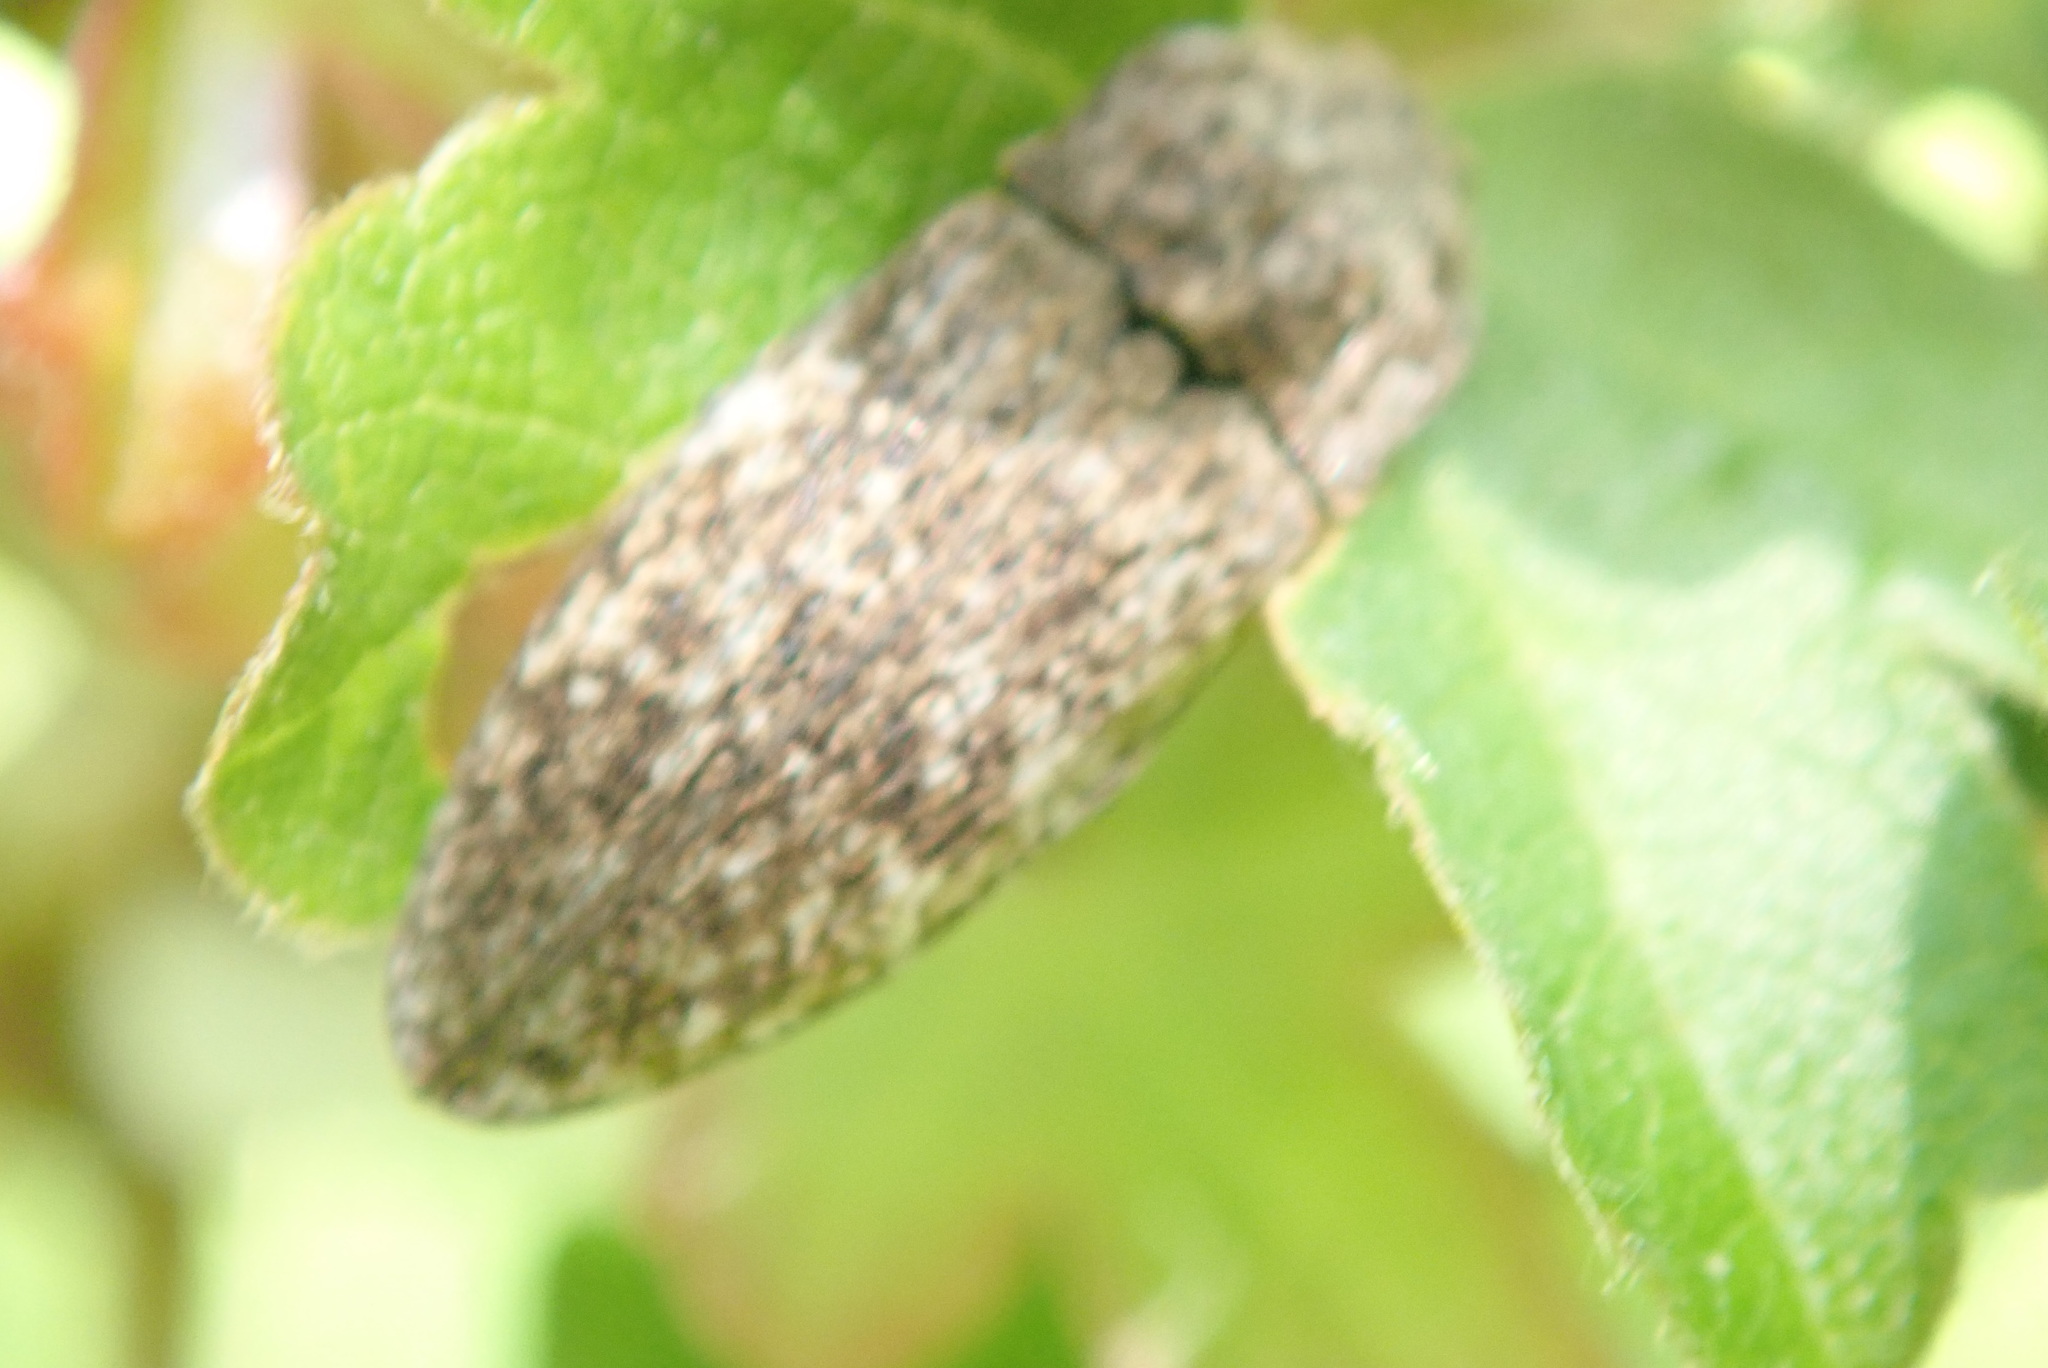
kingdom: Animalia
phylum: Arthropoda
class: Insecta
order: Coleoptera
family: Elateridae
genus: Agrypnus
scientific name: Agrypnus murinus
